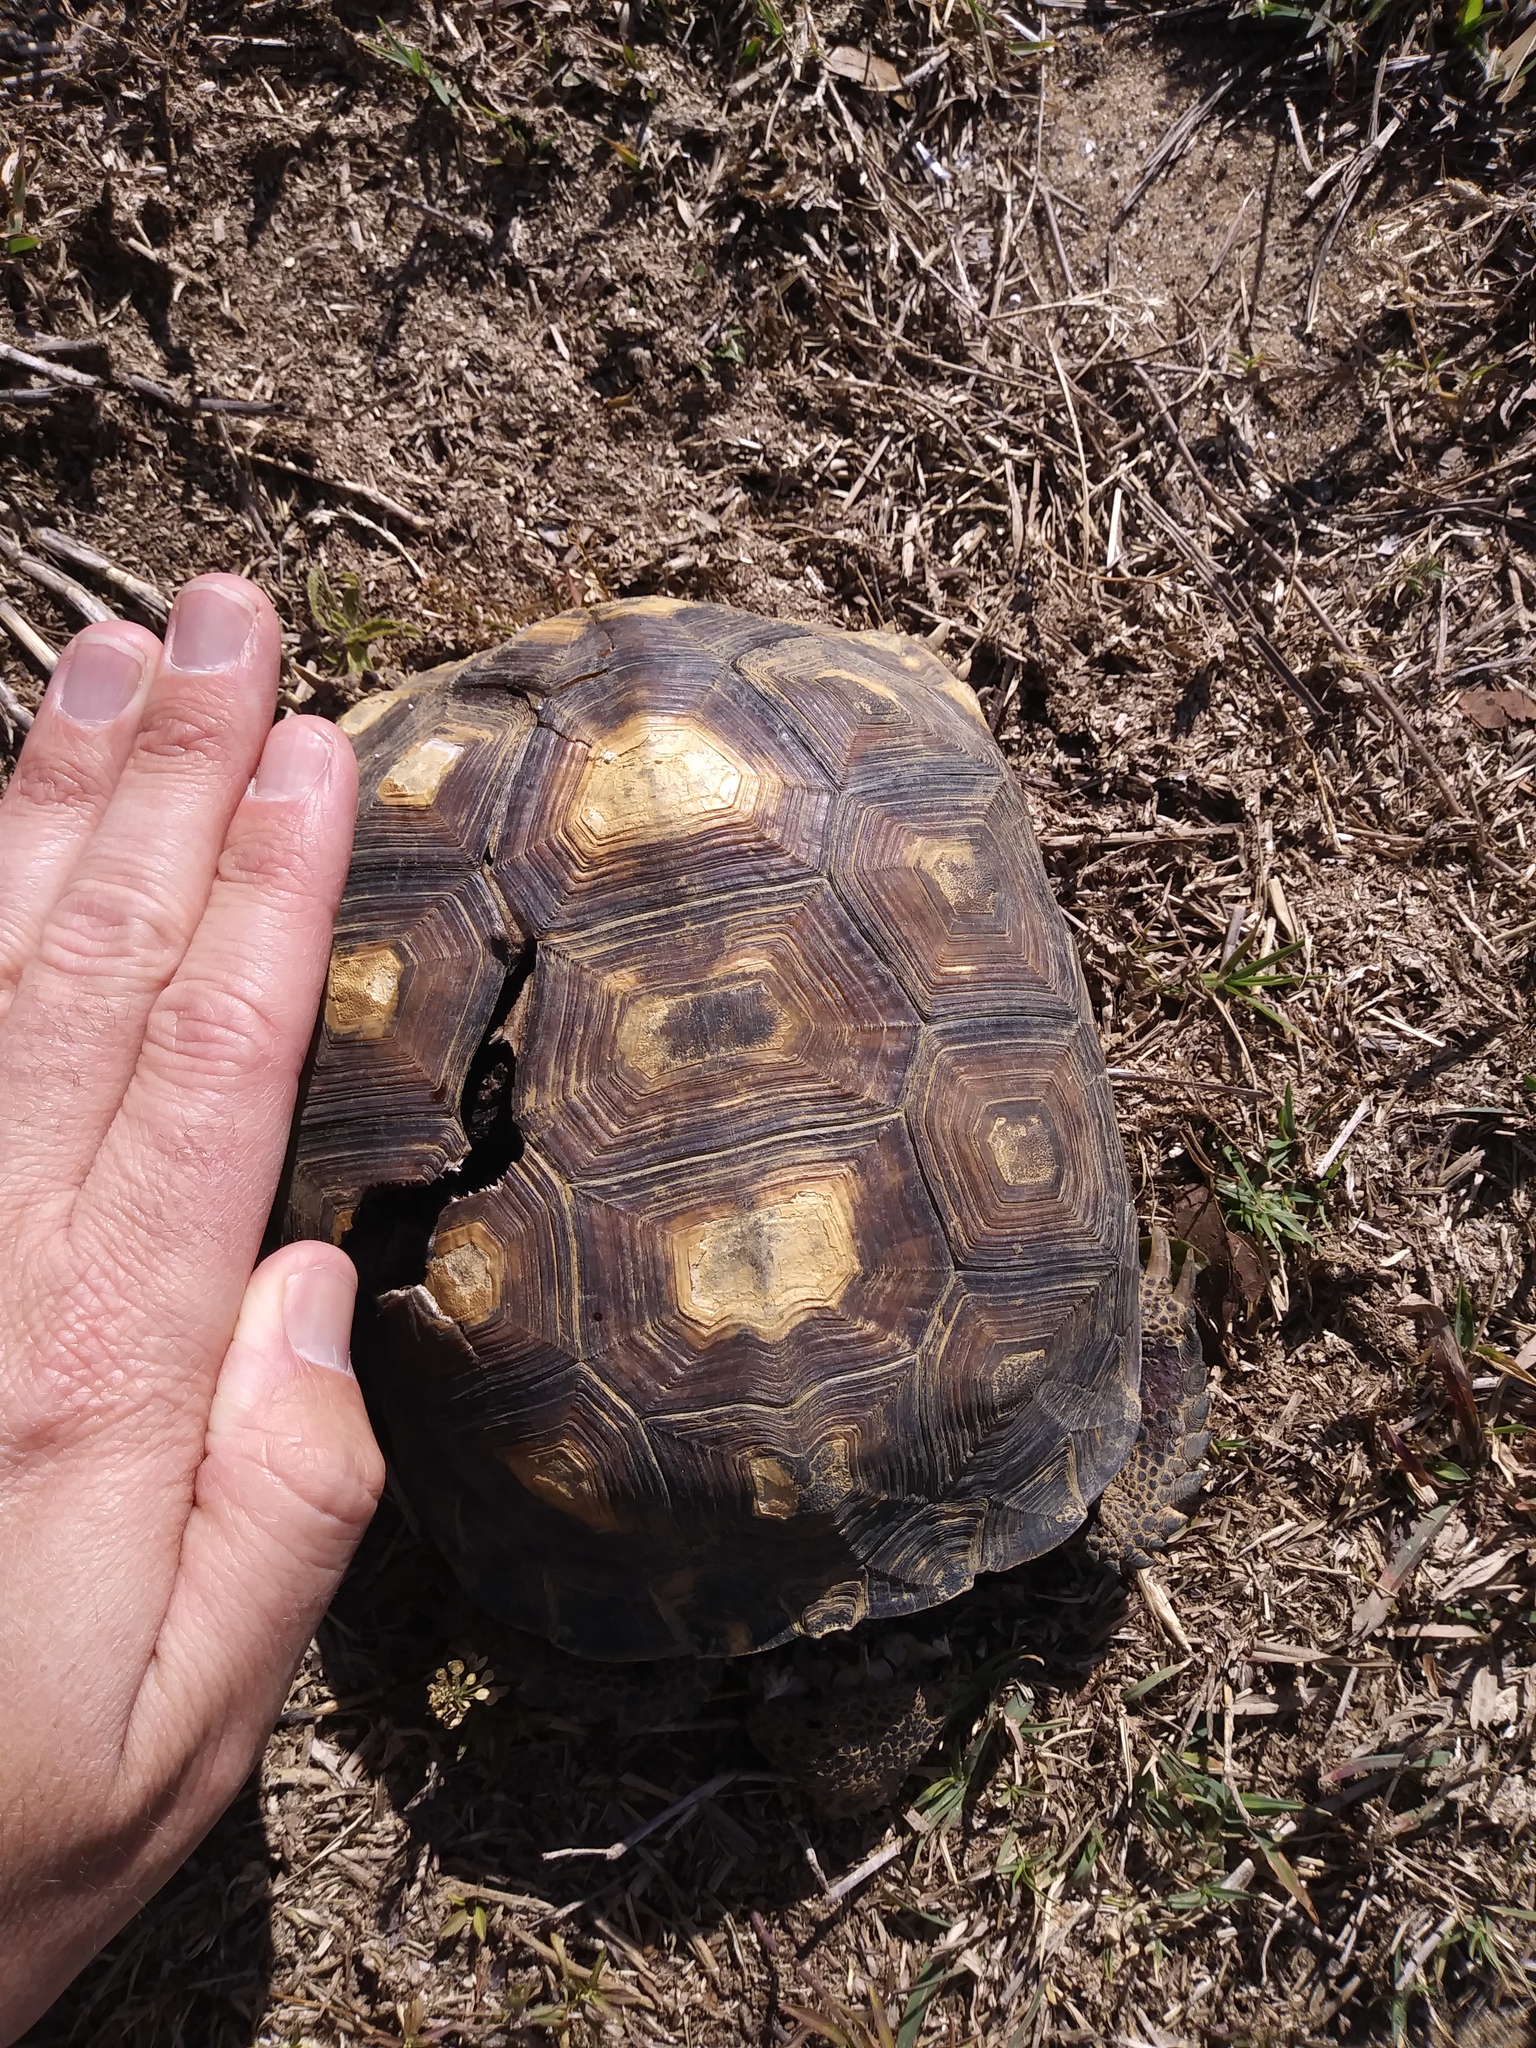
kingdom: Animalia
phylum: Chordata
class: Testudines
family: Testudinidae
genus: Gopherus
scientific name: Gopherus polyphemus
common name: Florida gopher tortoise
